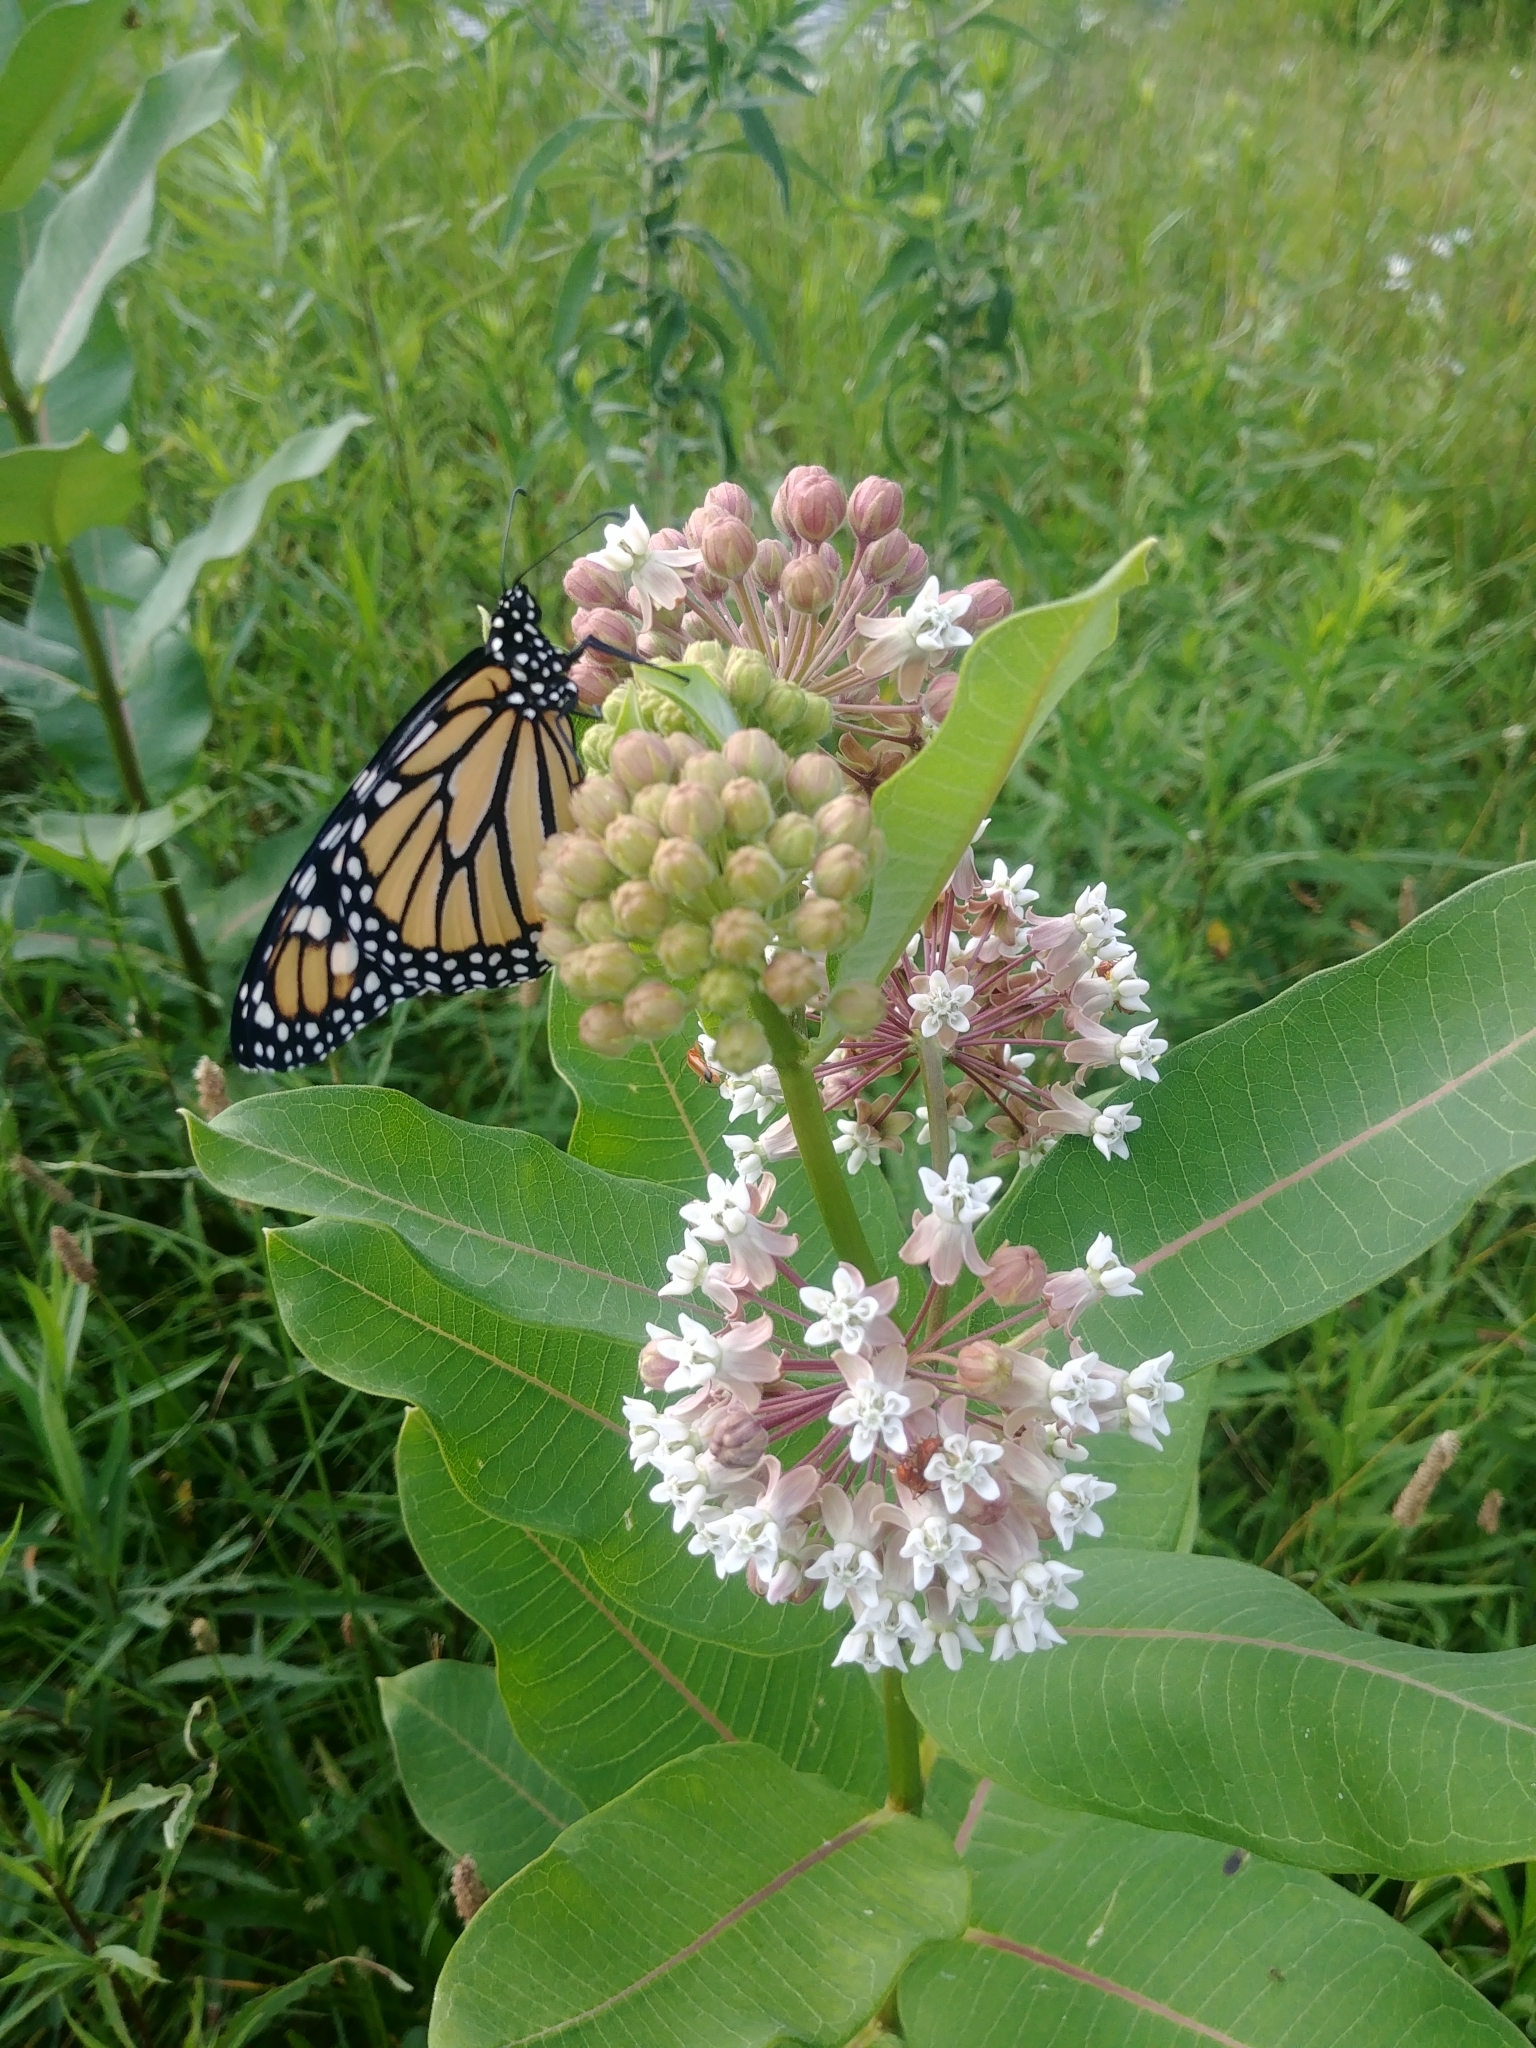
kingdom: Animalia
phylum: Arthropoda
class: Insecta
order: Lepidoptera
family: Nymphalidae
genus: Danaus
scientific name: Danaus plexippus
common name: Monarch
